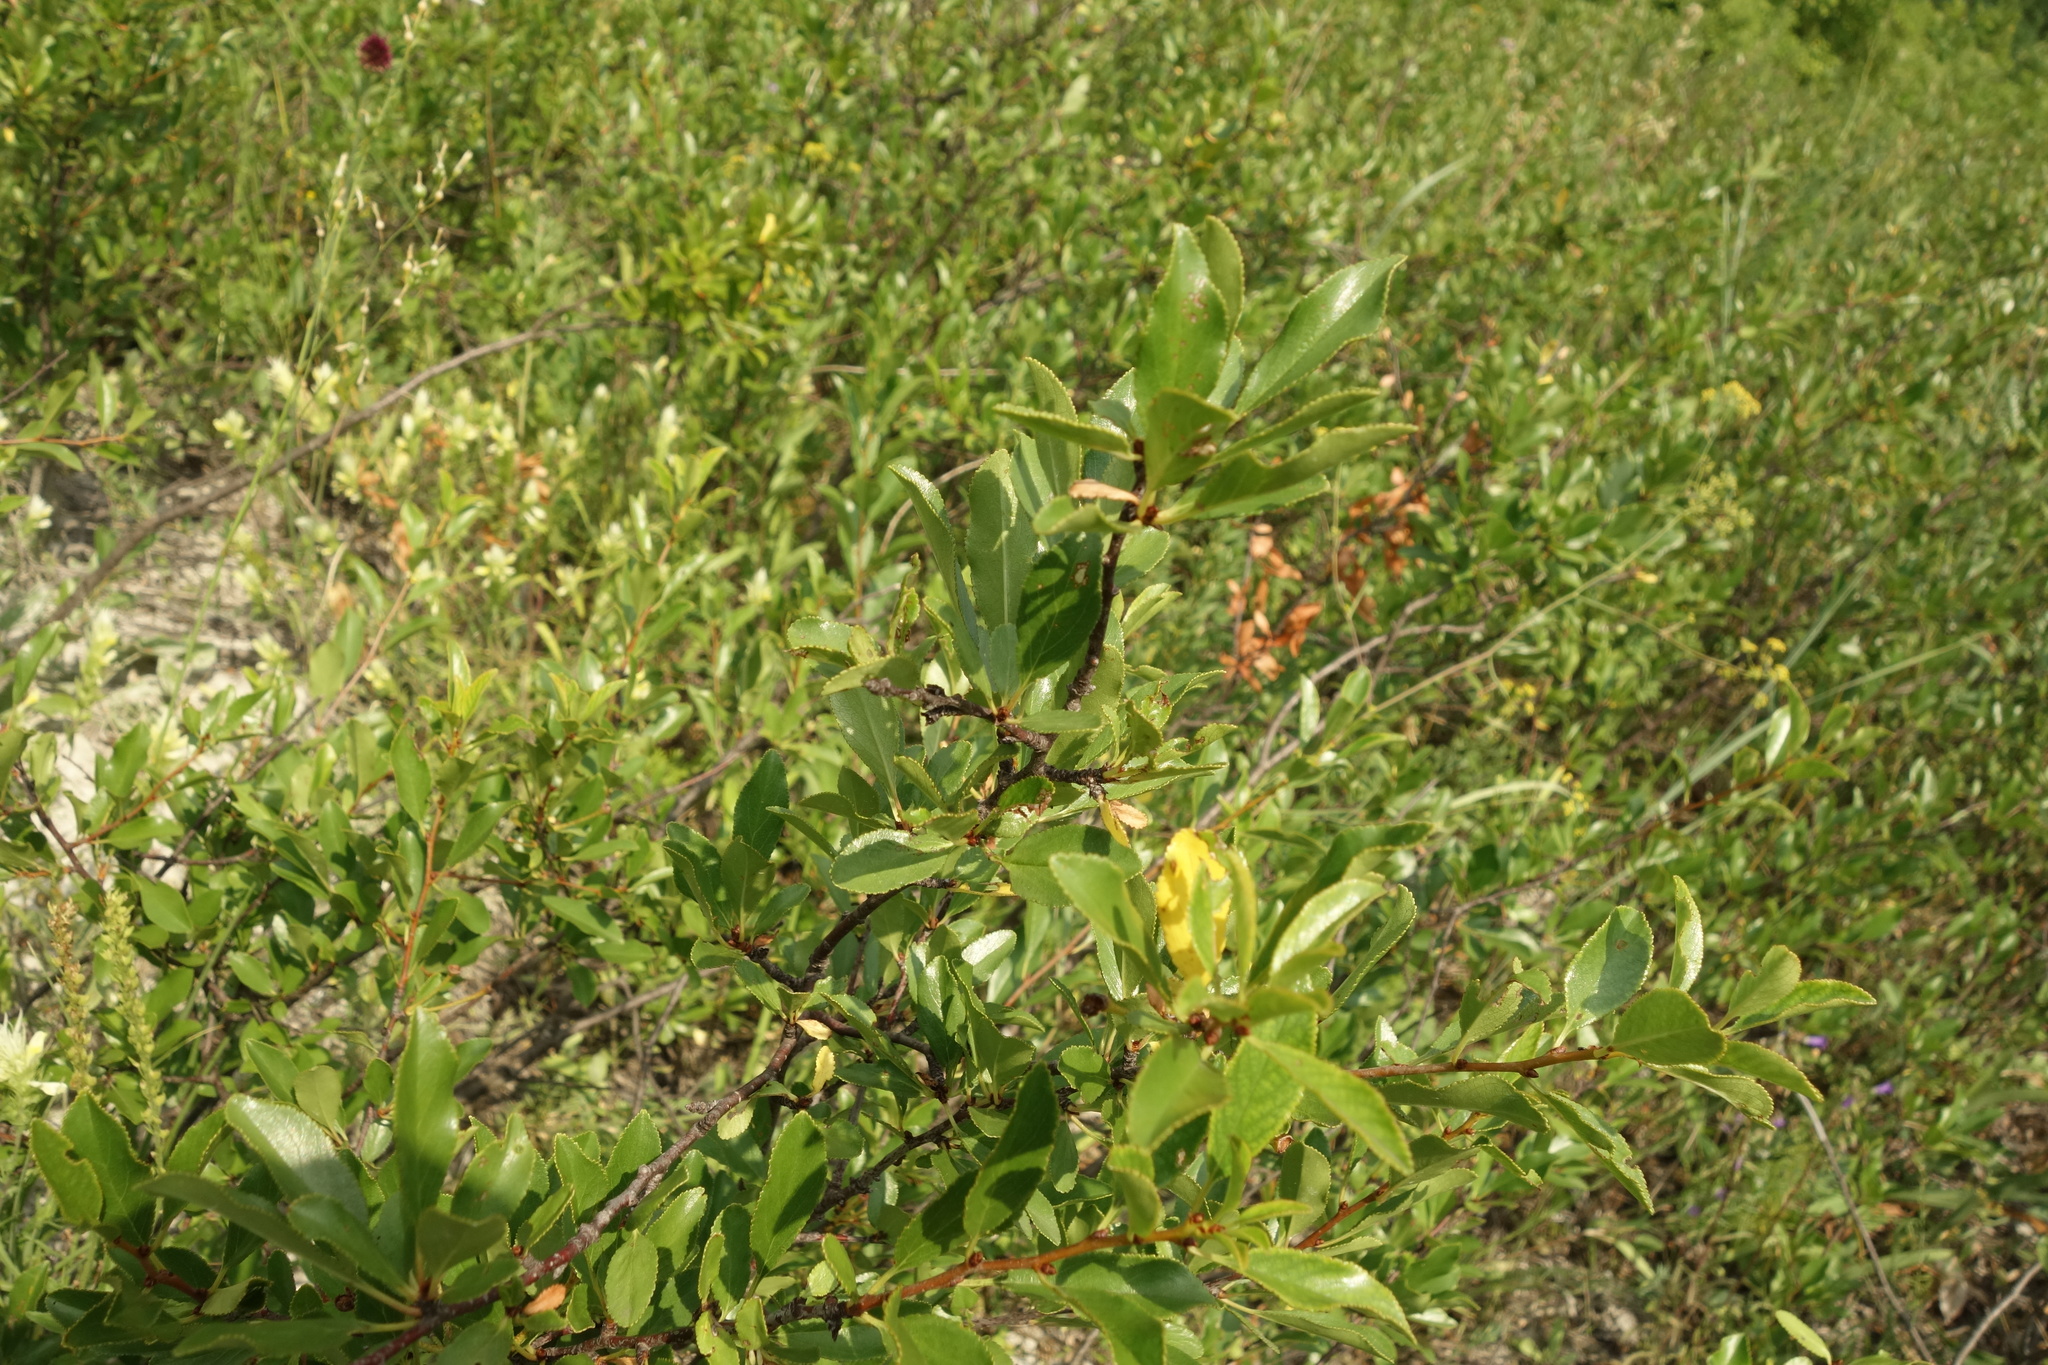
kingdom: Plantae
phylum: Tracheophyta
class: Magnoliopsida
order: Rosales
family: Rosaceae
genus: Prunus
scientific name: Prunus fruticosa
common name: European dwarf cherry
